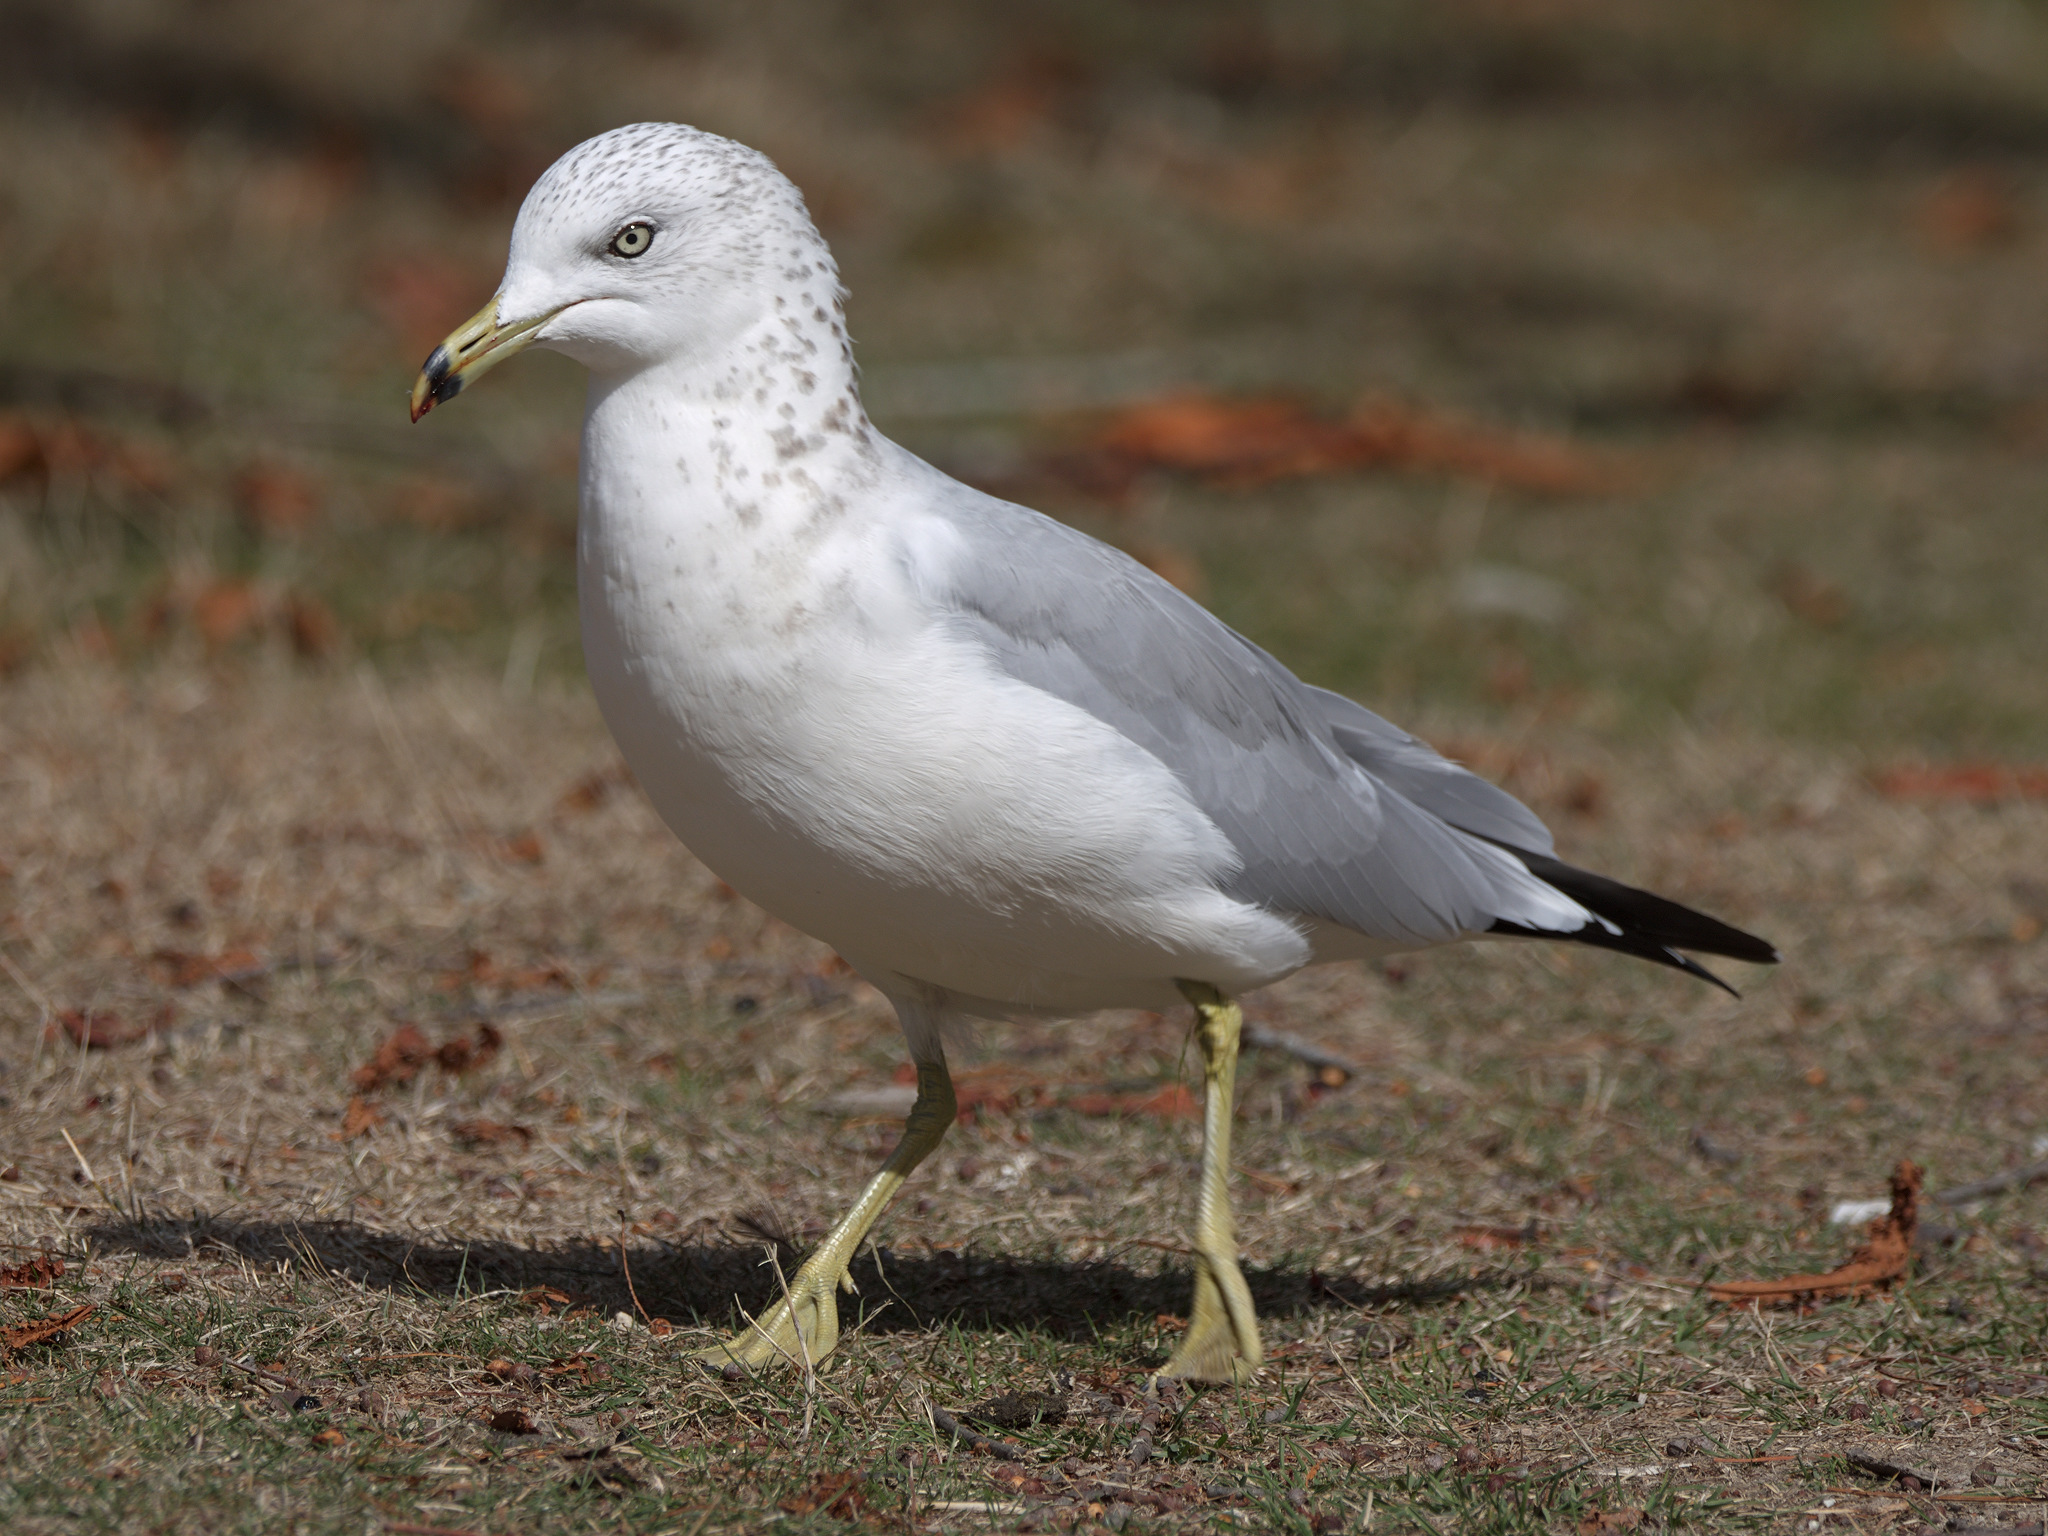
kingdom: Animalia
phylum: Chordata
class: Aves
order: Charadriiformes
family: Laridae
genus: Larus
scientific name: Larus delawarensis
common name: Ring-billed gull
